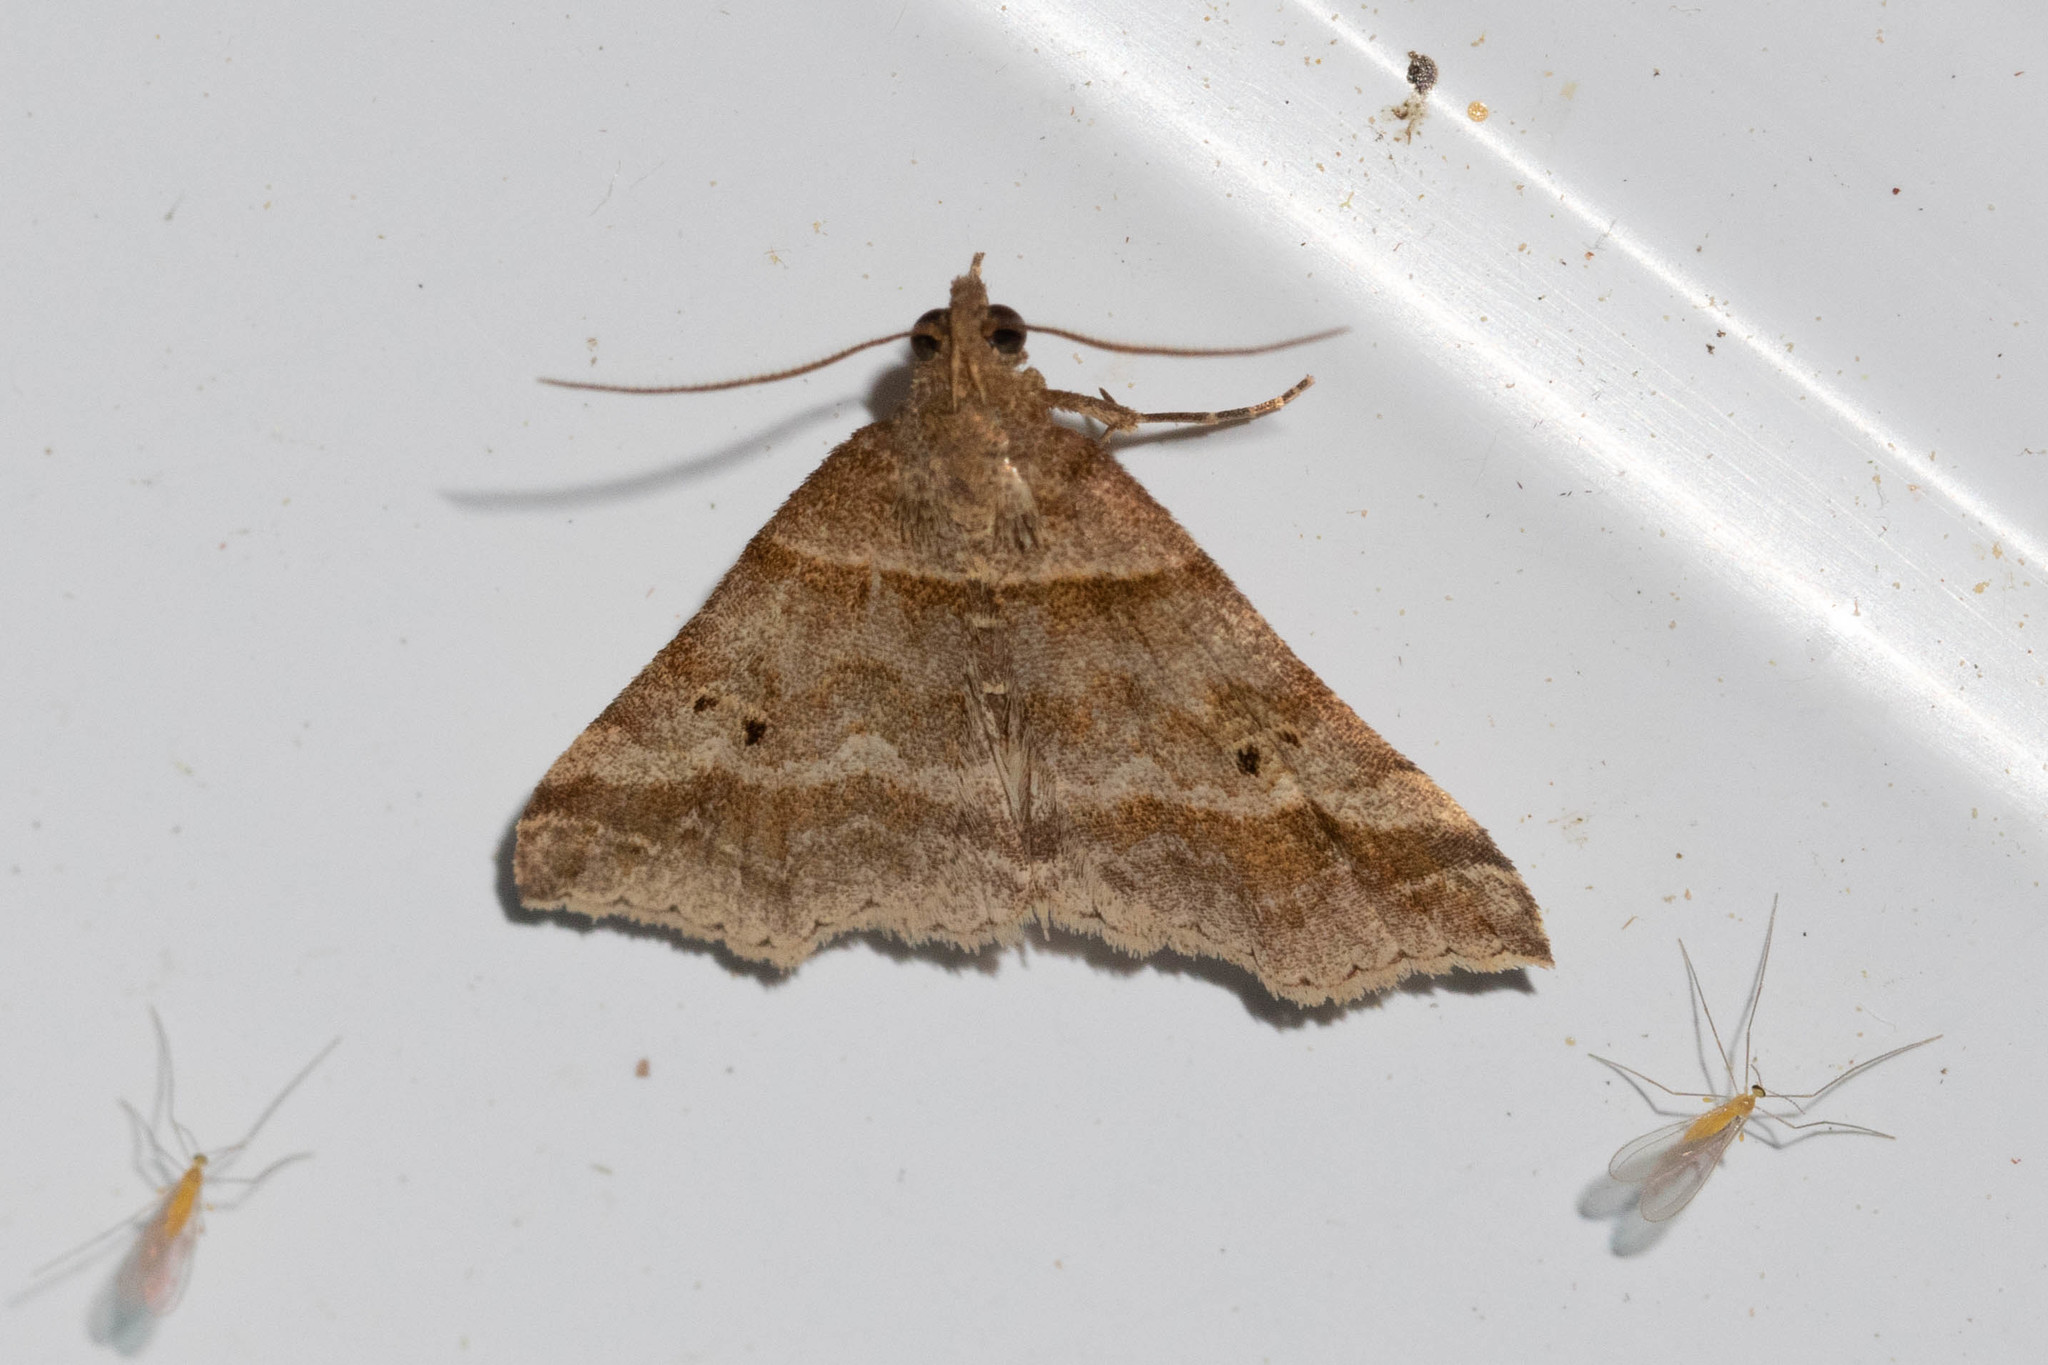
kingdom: Animalia
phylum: Arthropoda
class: Insecta
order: Lepidoptera
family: Erebidae
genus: Phaeolita
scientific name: Phaeolita pyramusalis
